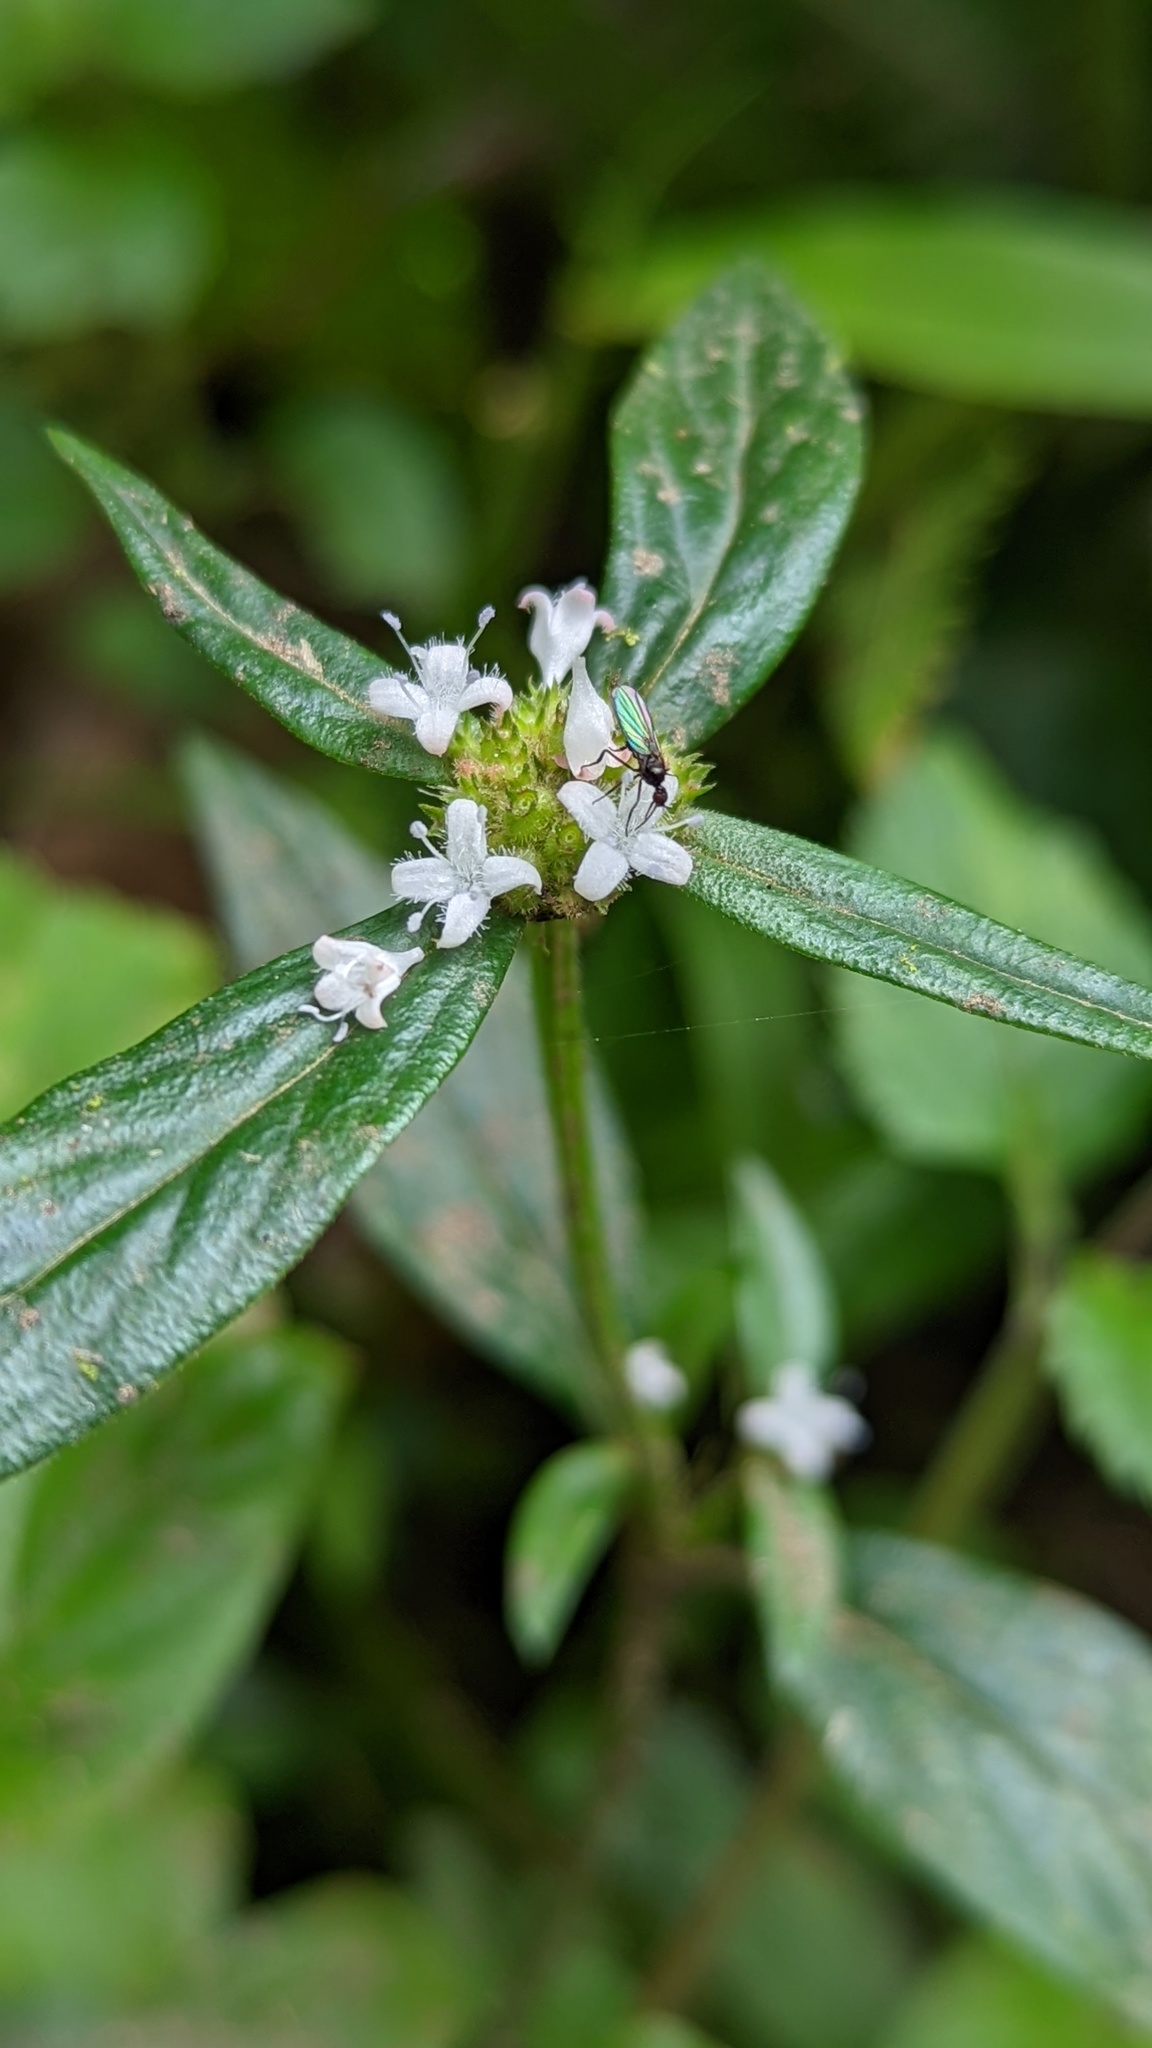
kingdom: Plantae
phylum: Tracheophyta
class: Magnoliopsida
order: Gentianales
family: Rubiaceae
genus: Spermacoce
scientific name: Spermacoce remota
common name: Woodland false buttonweed
